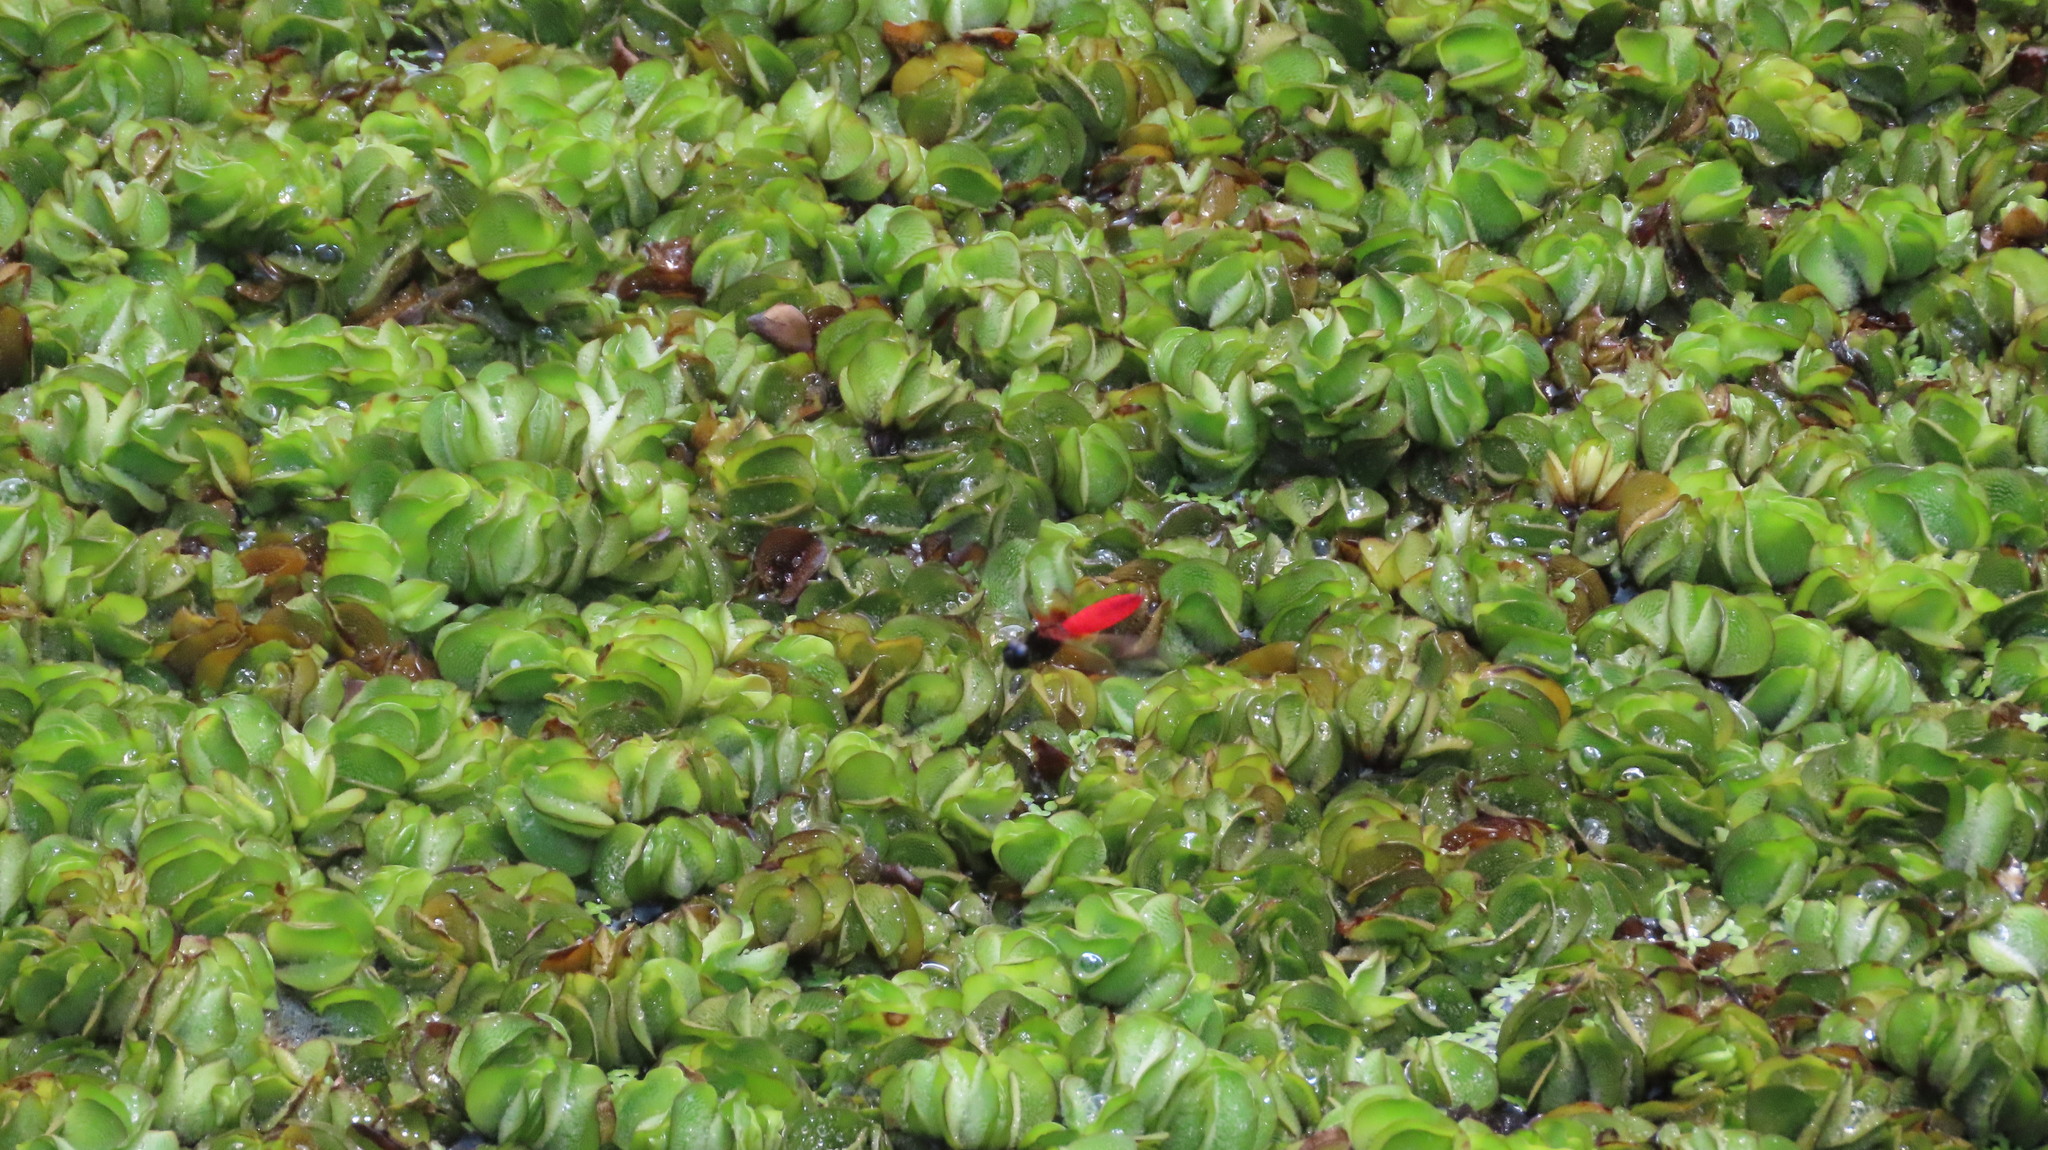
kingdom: Animalia
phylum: Arthropoda
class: Insecta
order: Odonata
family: Libellulidae
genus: Aethriamanta
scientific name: Aethriamanta brevipennis
